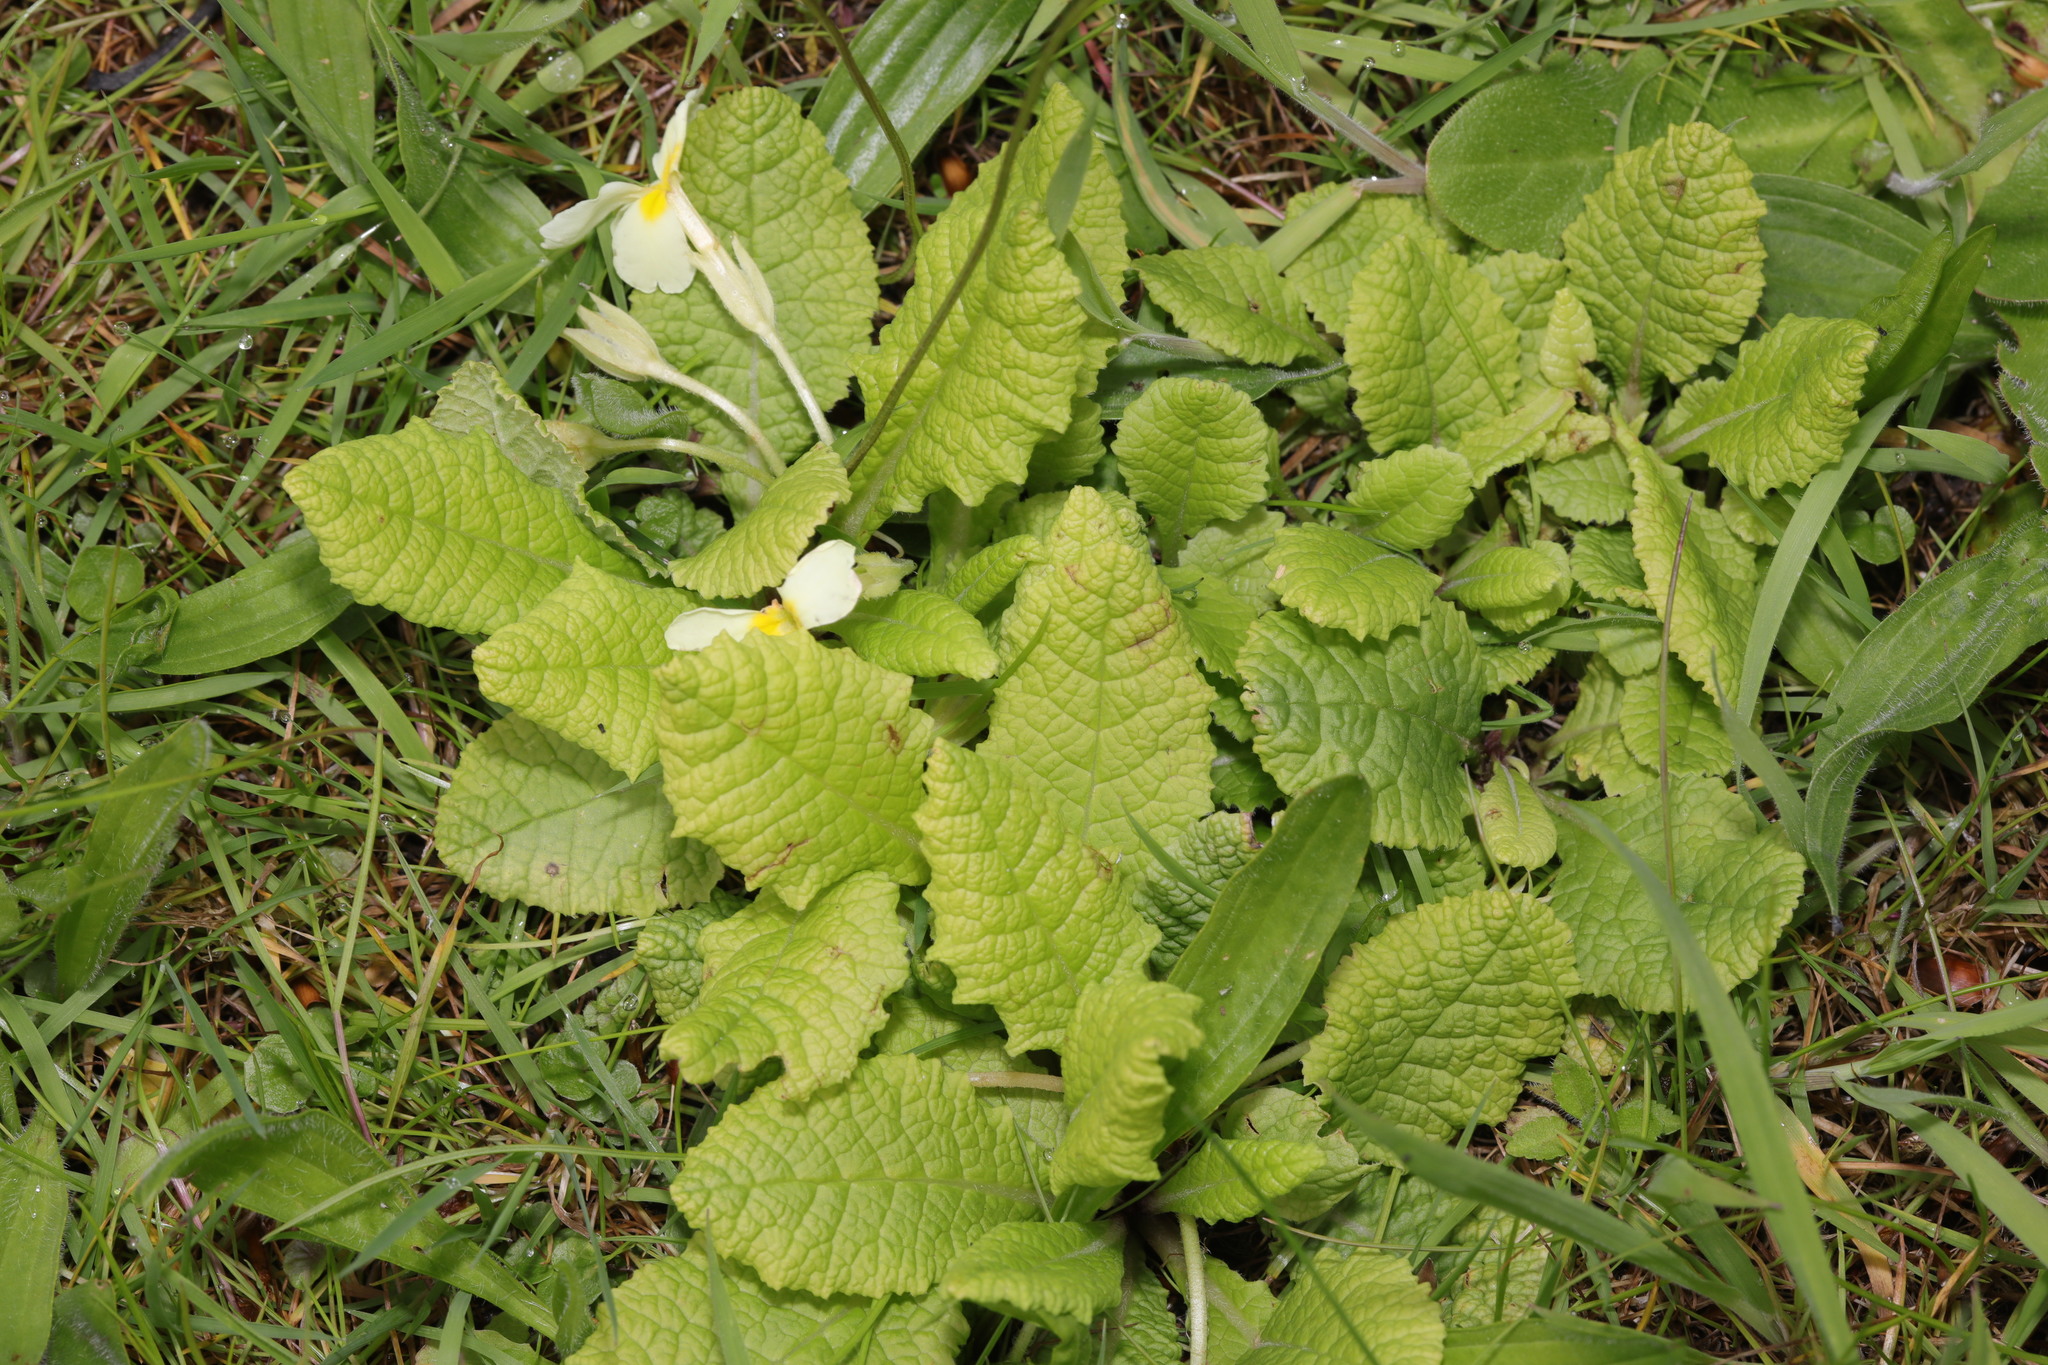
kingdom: Plantae
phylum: Tracheophyta
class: Magnoliopsida
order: Ericales
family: Primulaceae
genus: Primula
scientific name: Primula vulgaris
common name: Primrose
